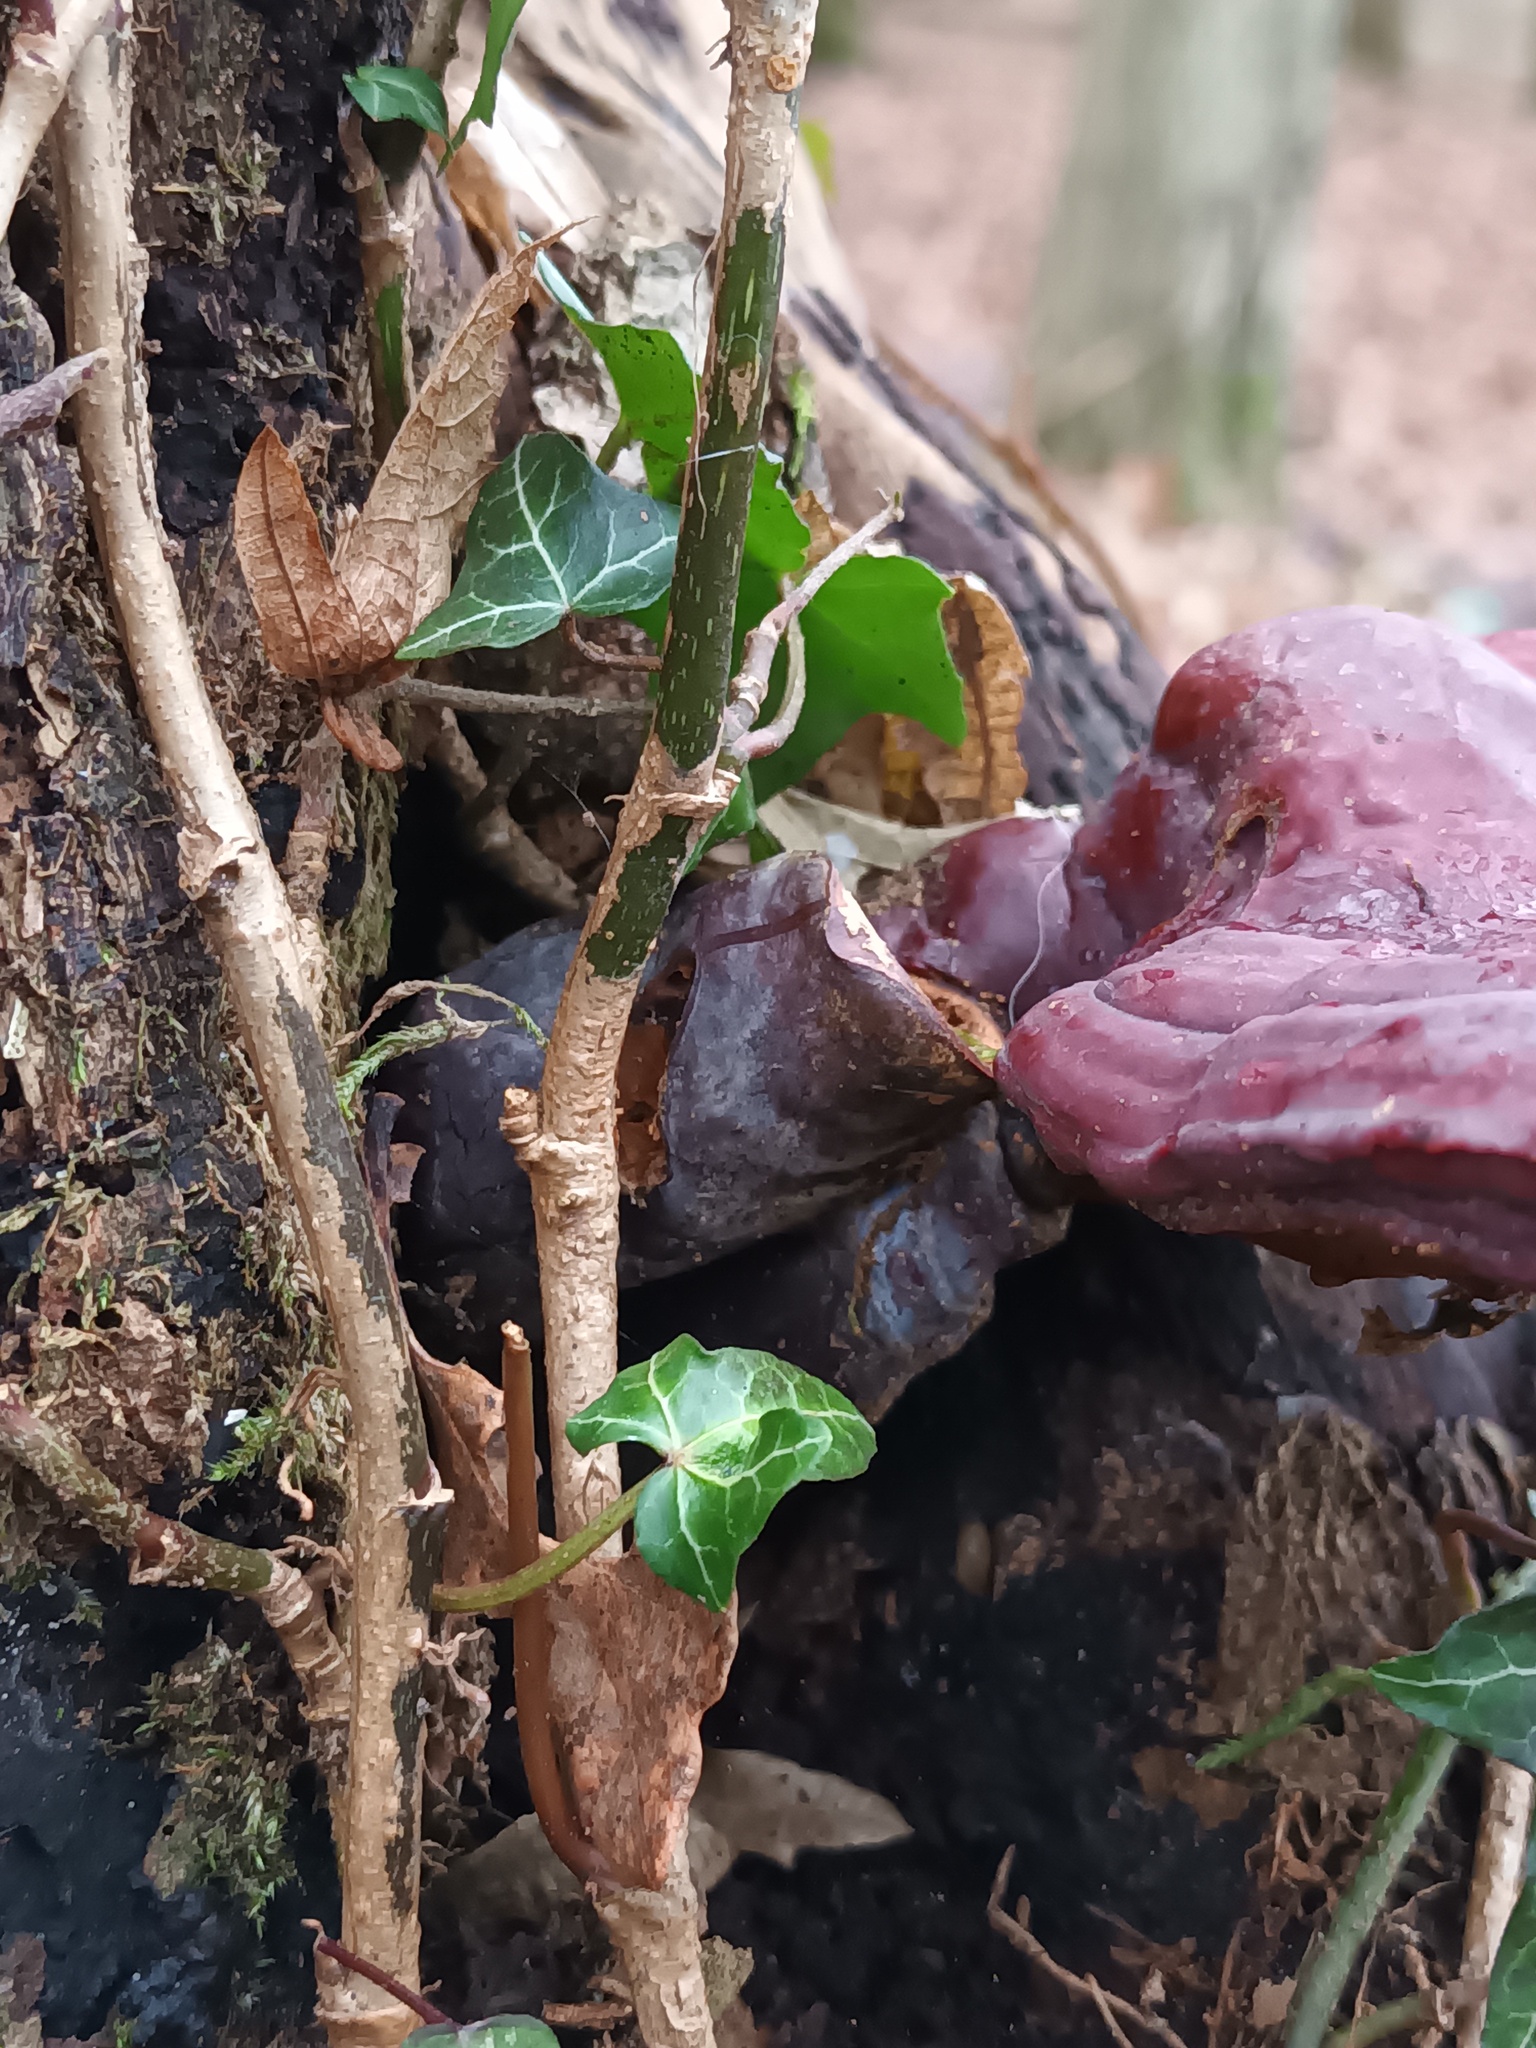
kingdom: Fungi
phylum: Basidiomycota
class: Agaricomycetes
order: Polyporales
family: Polyporaceae
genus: Ganoderma
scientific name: Ganoderma lucidum
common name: Lacquered bracket
